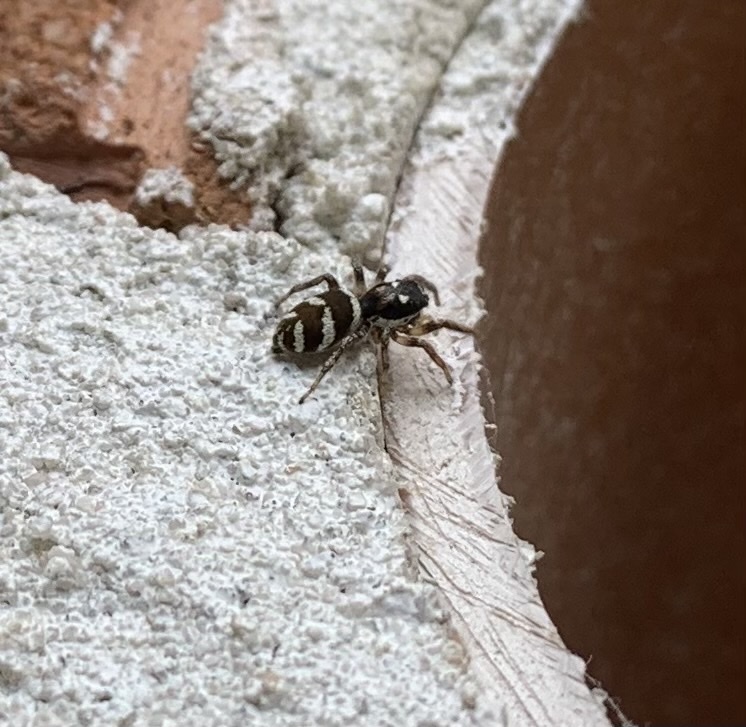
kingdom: Animalia
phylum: Arthropoda
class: Arachnida
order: Araneae
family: Salticidae
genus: Salticus
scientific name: Salticus scenicus
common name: Zebra jumper
